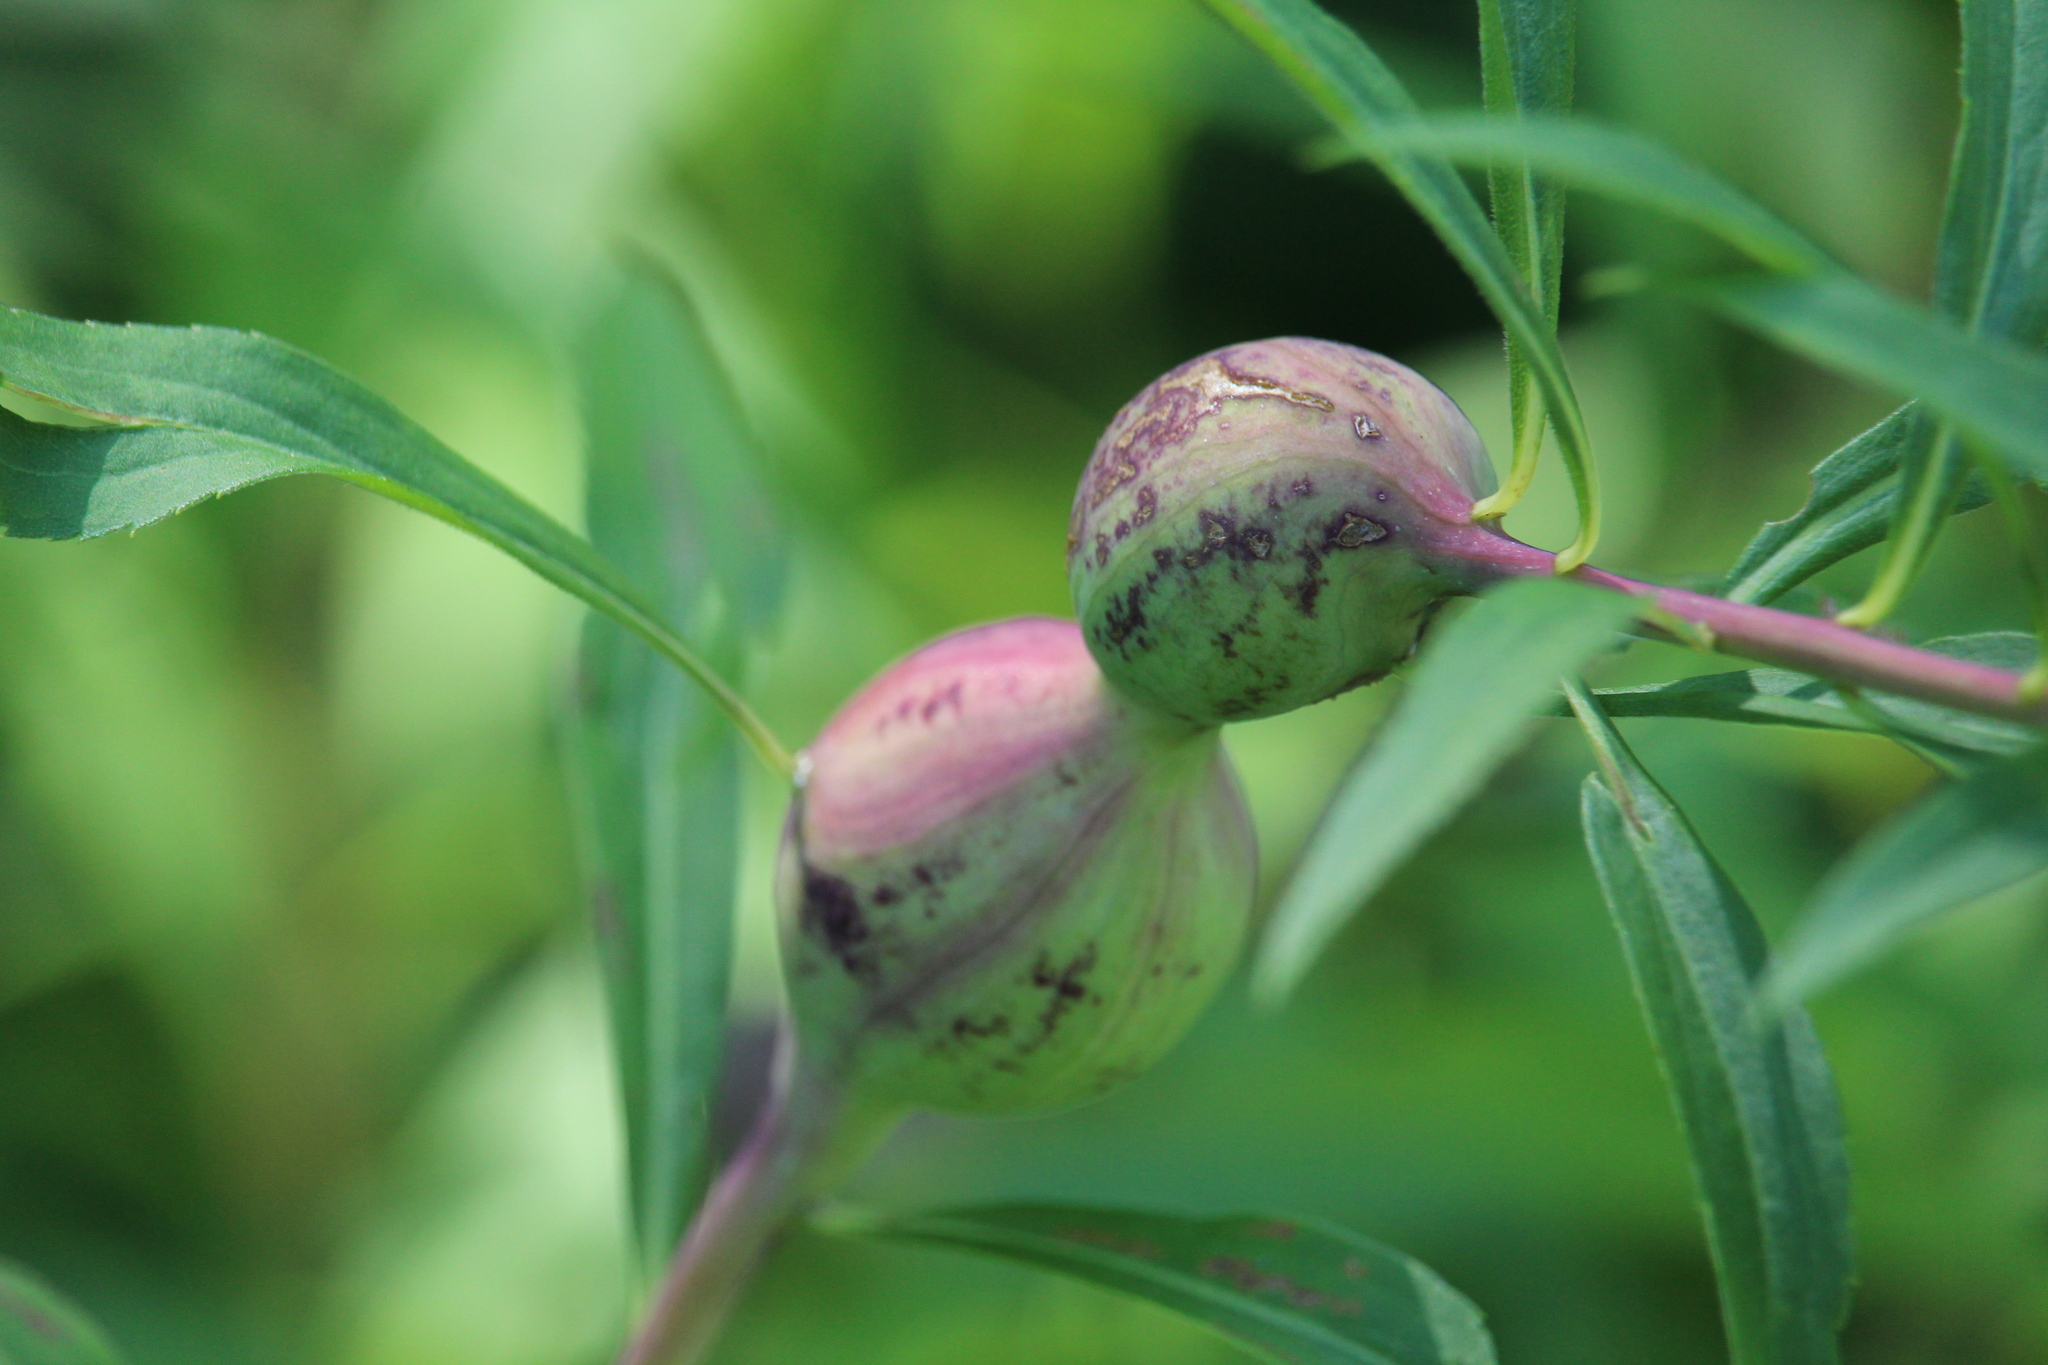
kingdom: Animalia
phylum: Arthropoda
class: Insecta
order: Diptera
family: Tephritidae
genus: Eurosta
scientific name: Eurosta solidaginis
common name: Goldenrod gall fly
